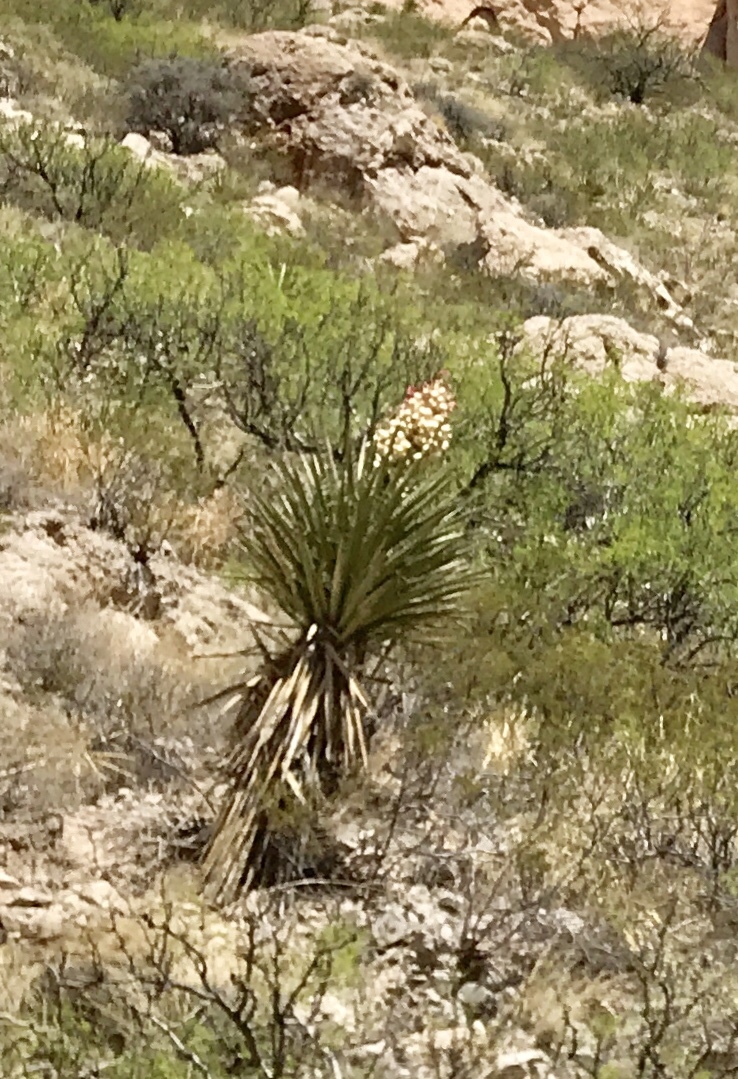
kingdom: Plantae
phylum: Tracheophyta
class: Liliopsida
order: Asparagales
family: Asparagaceae
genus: Yucca
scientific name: Yucca treculiana
